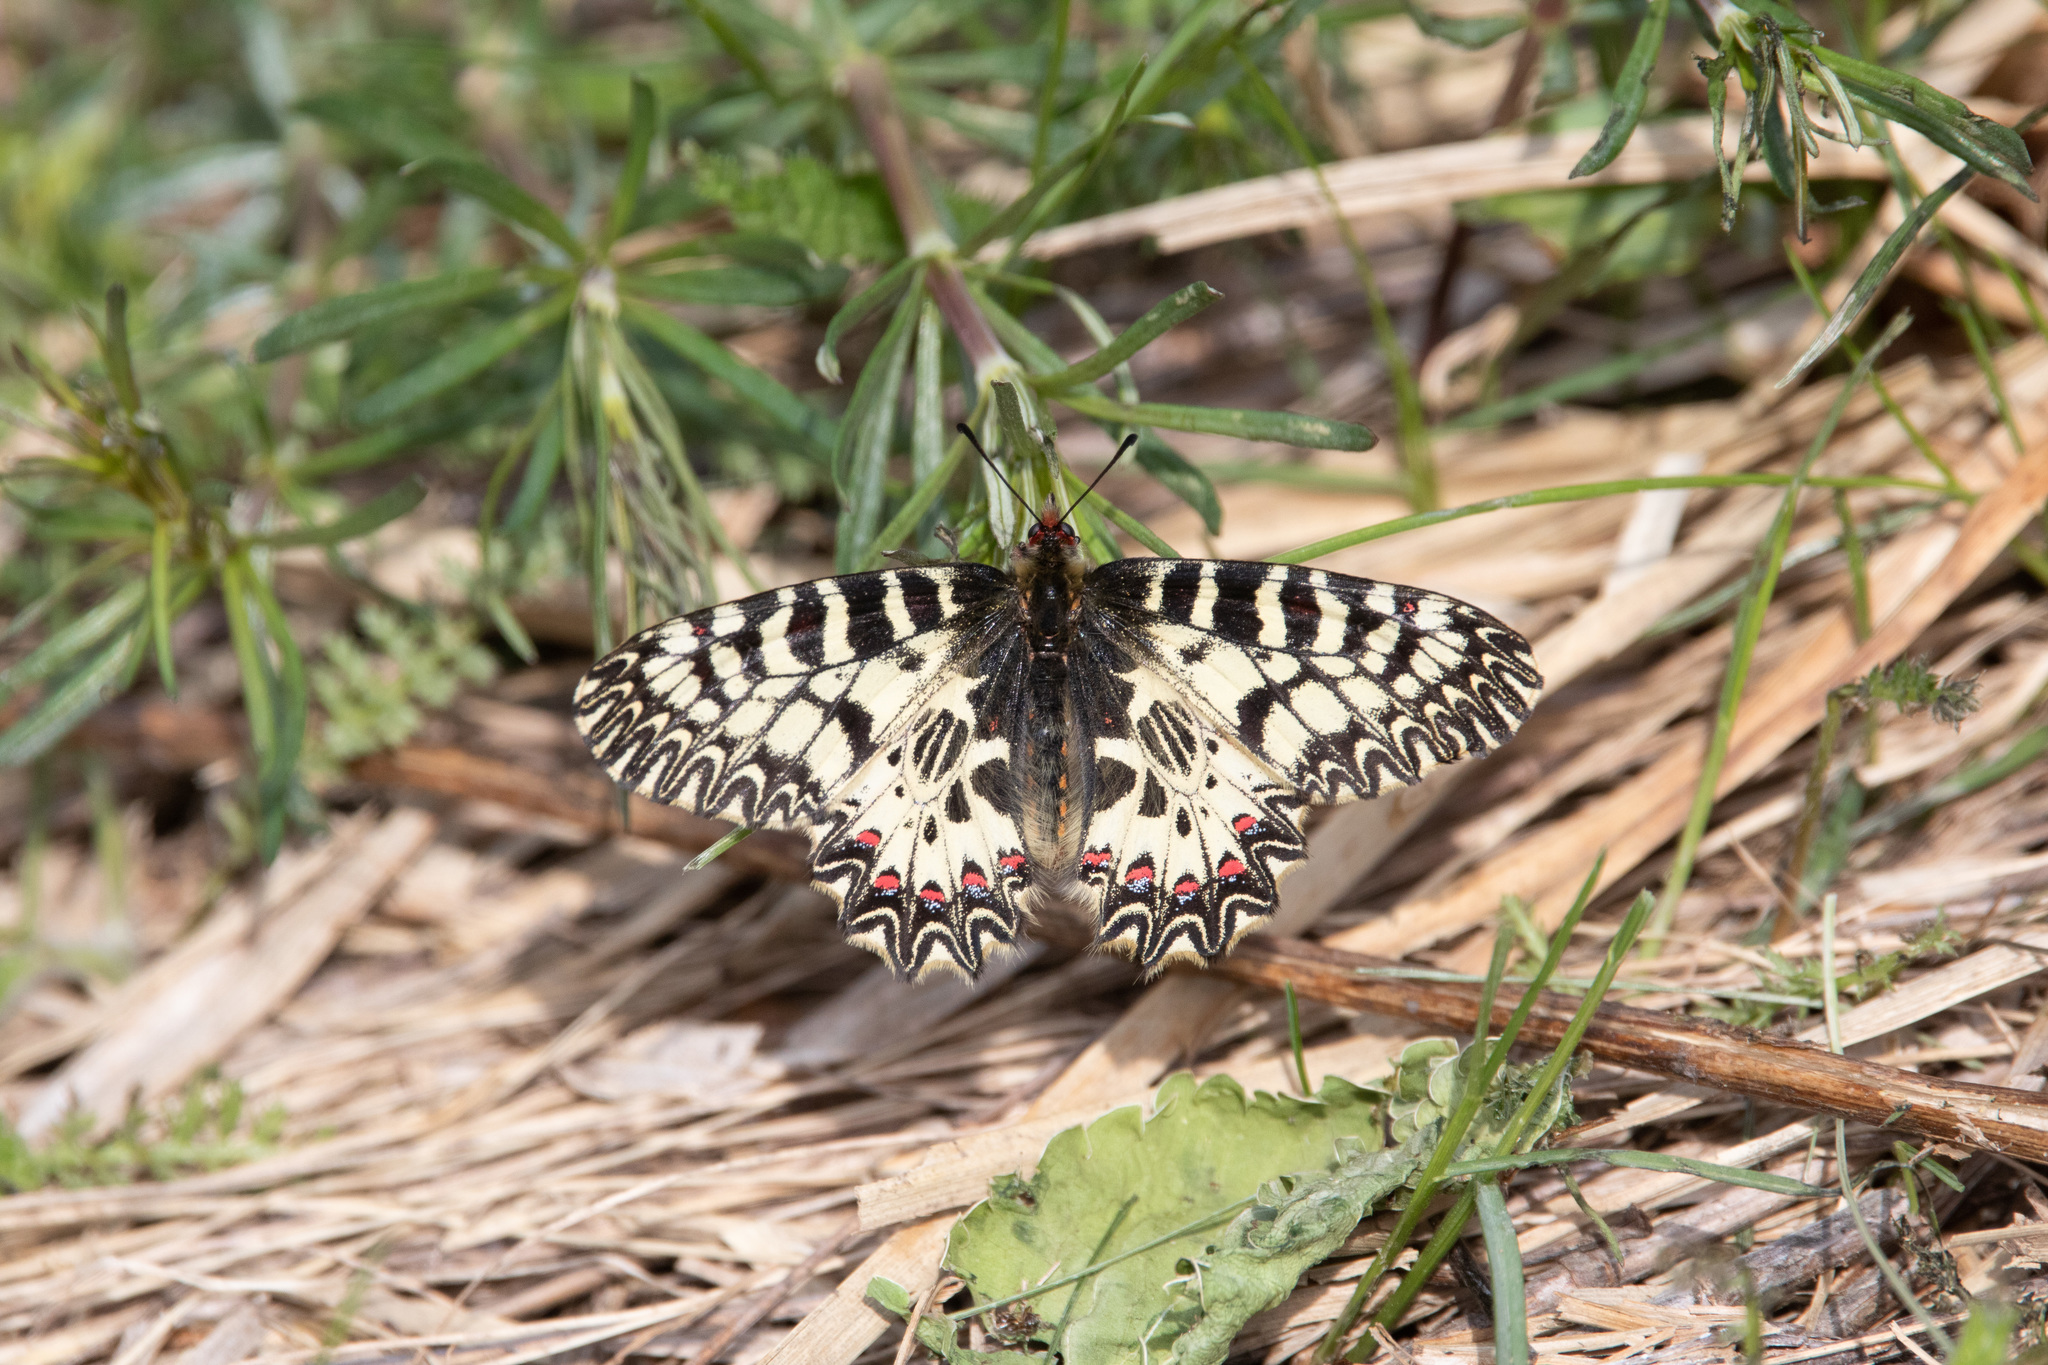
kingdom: Animalia
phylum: Arthropoda
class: Insecta
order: Lepidoptera
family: Papilionidae
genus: Zerynthia
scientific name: Zerynthia polyxena
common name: Southern festoon
